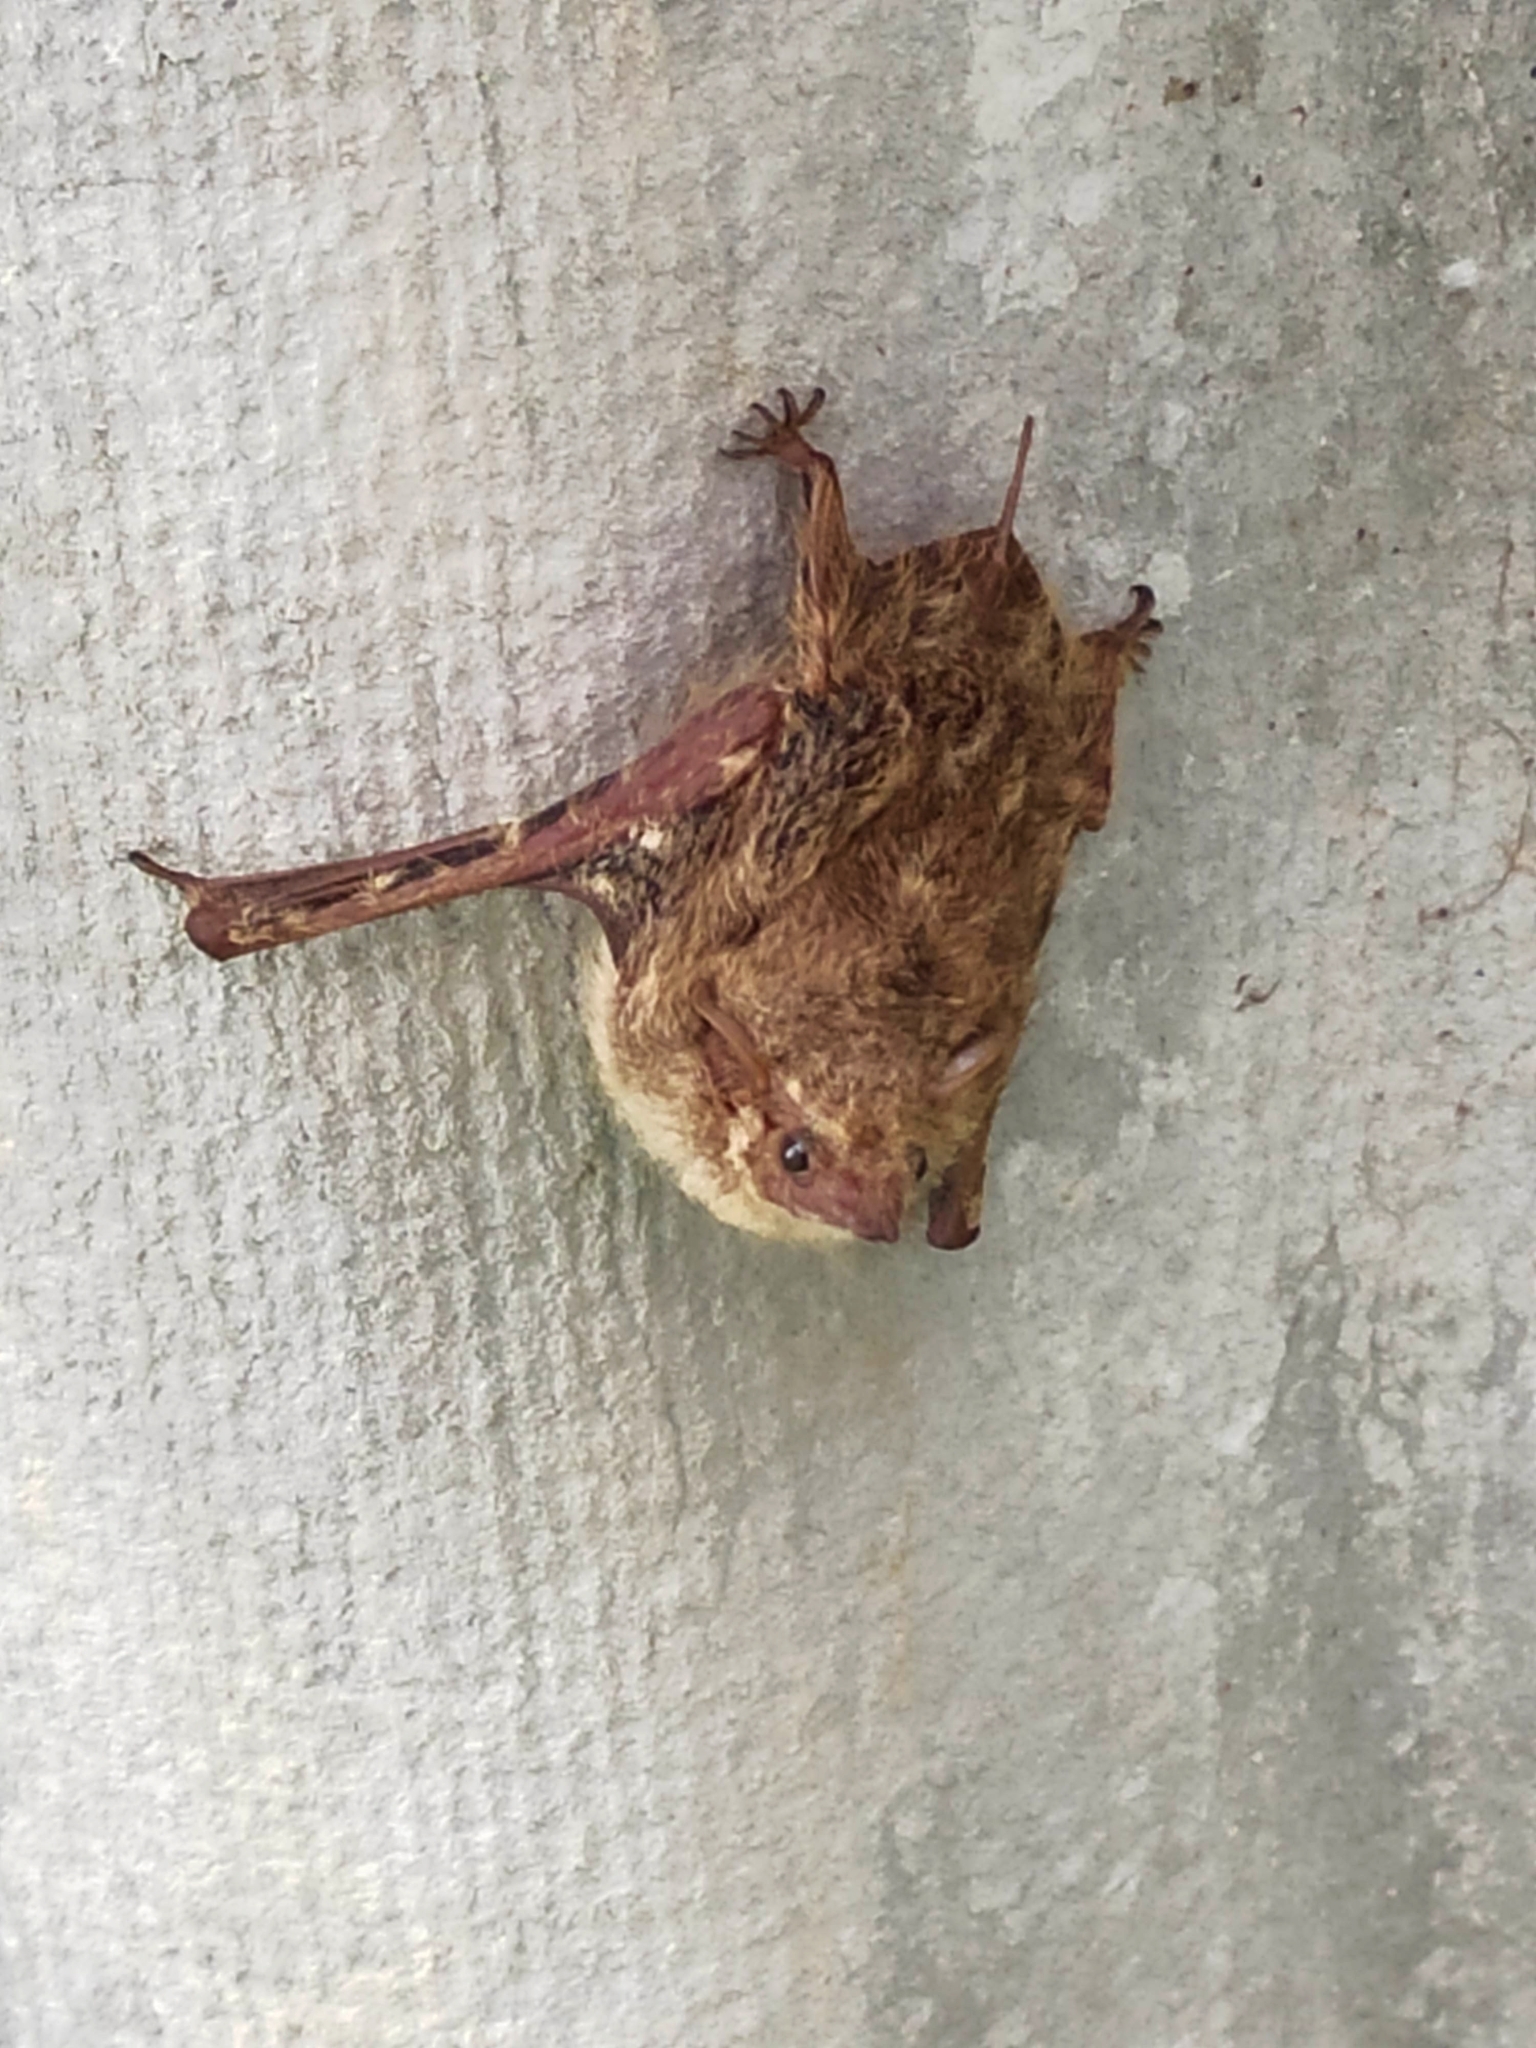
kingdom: Animalia
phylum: Chordata
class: Mammalia
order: Chiroptera
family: Emballonuridae
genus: Rhynchonycteris
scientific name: Rhynchonycteris naso
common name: Proboscis bat
